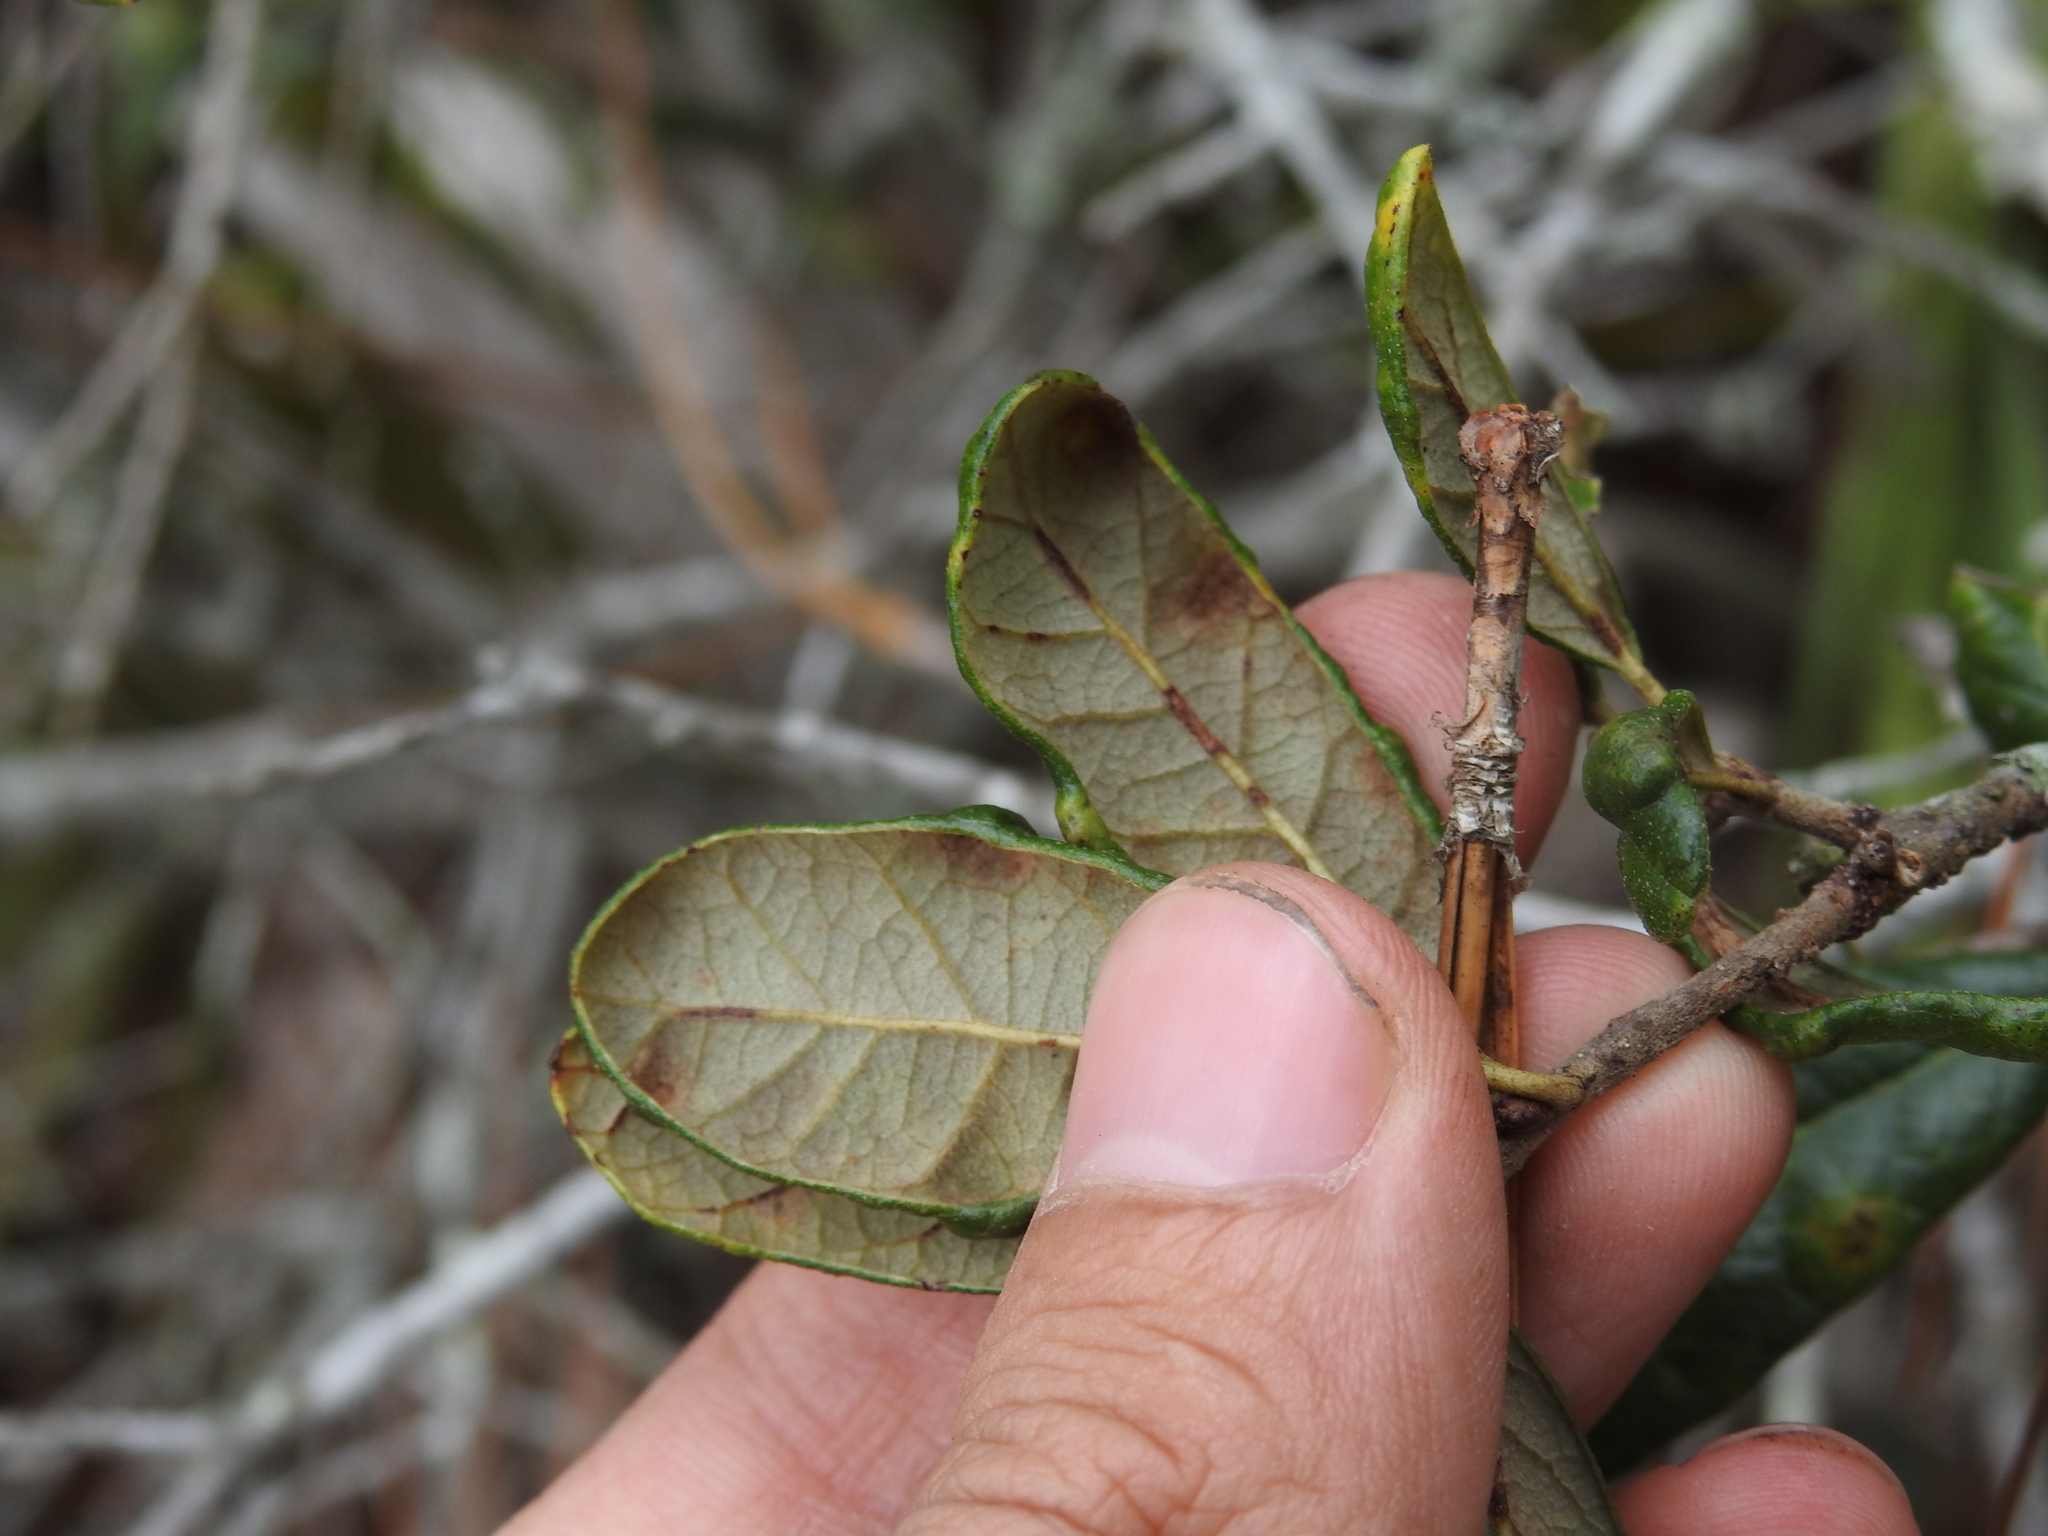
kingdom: Animalia
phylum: Arthropoda
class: Arachnida
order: Trombidiformes
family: Eriophyidae
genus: Aceria
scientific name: Aceria quercina
